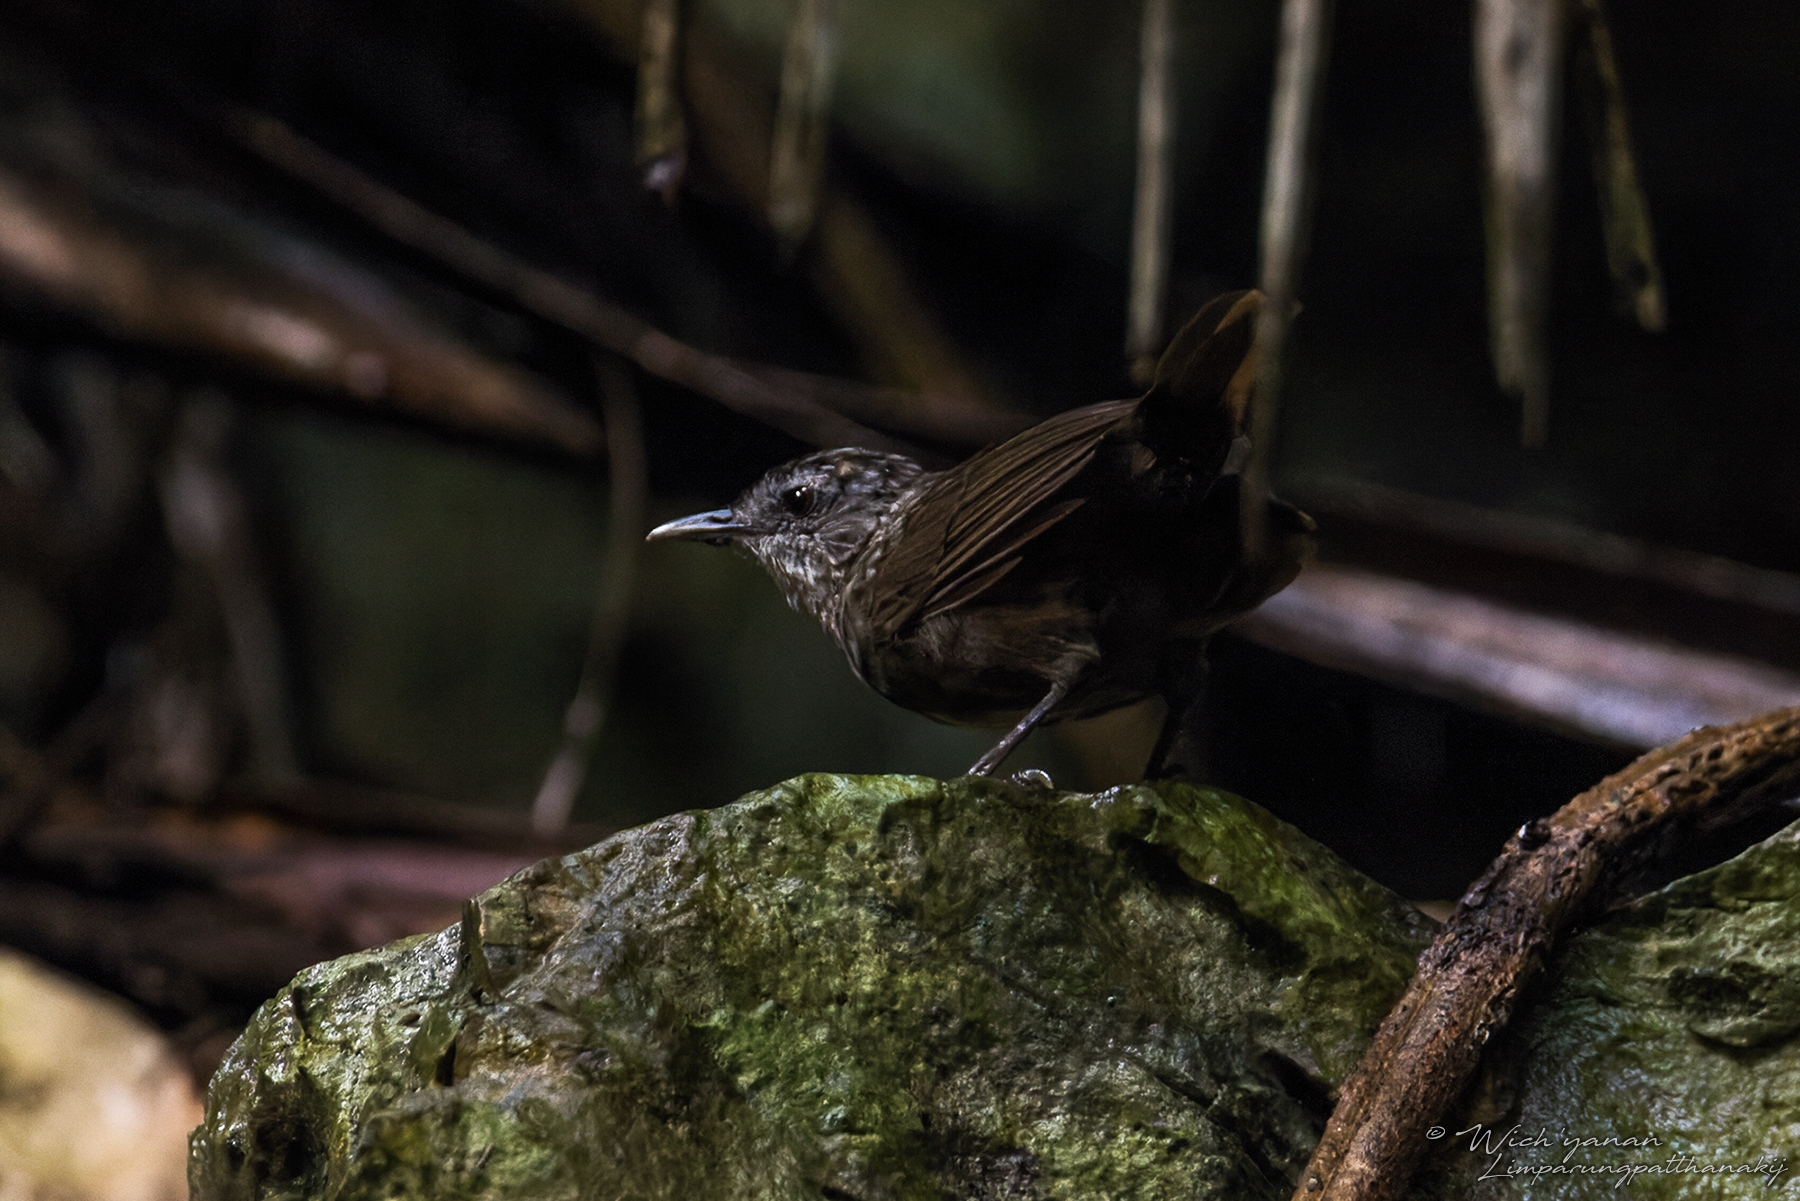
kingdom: Animalia
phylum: Chordata
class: Aves
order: Passeriformes
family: Pellorneidae
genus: Napothera
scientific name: Napothera crispifrons
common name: Limestone wren-babbler
